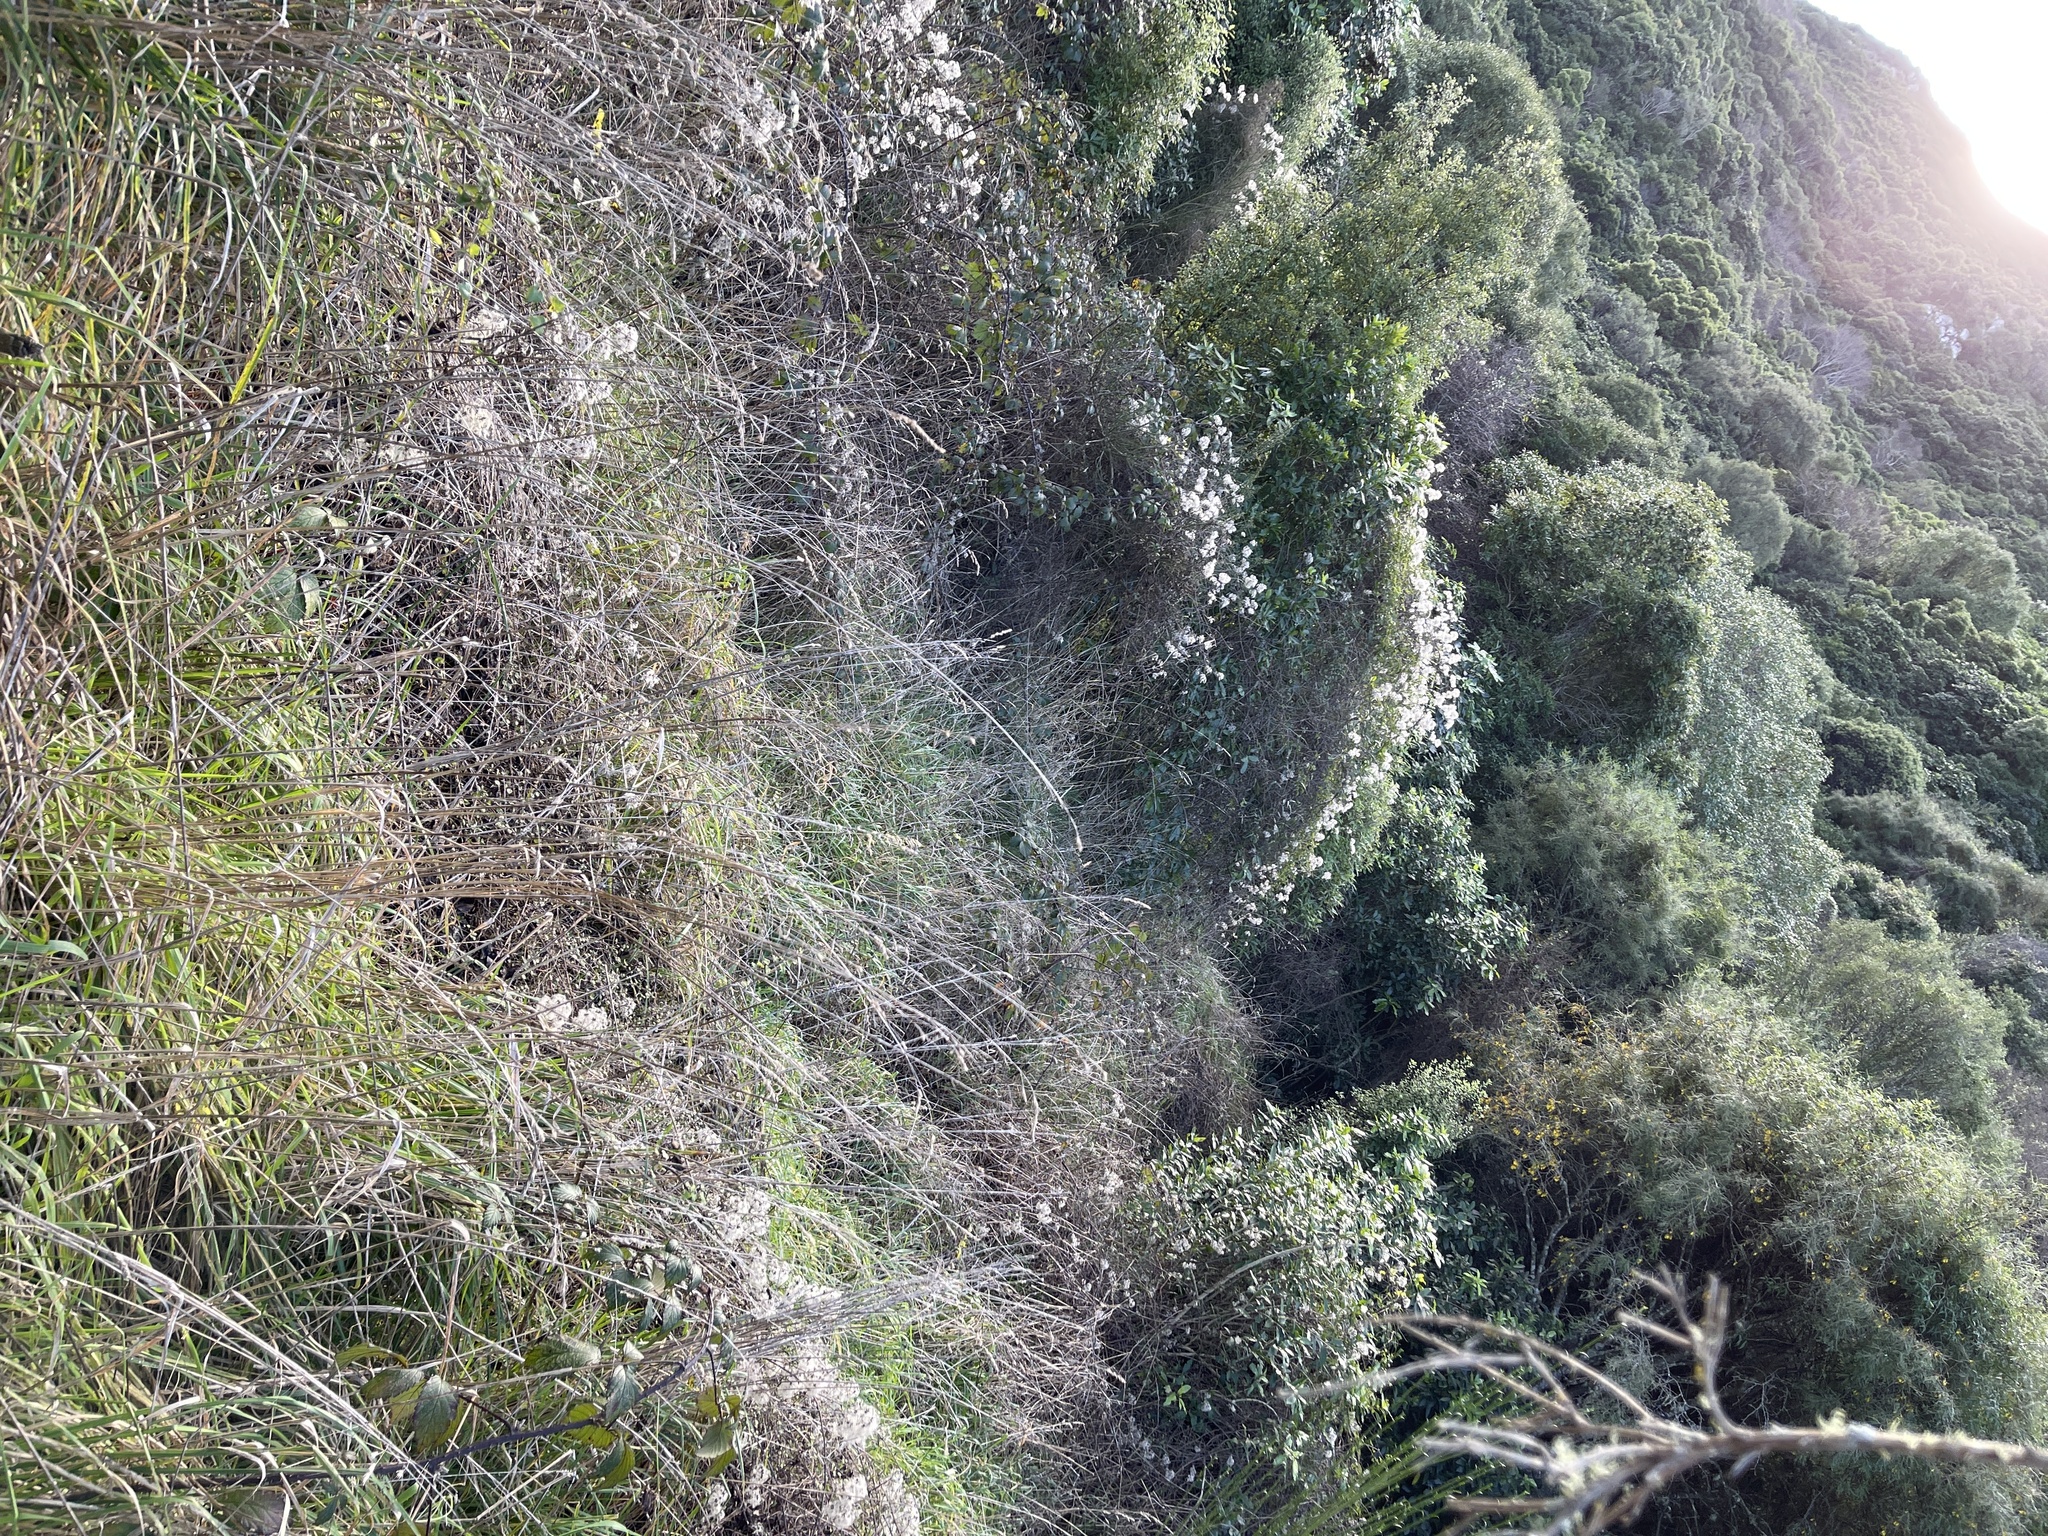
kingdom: Plantae
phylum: Tracheophyta
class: Magnoliopsida
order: Ranunculales
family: Ranunculaceae
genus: Clematis
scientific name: Clematis vitalba
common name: Evergreen clematis
